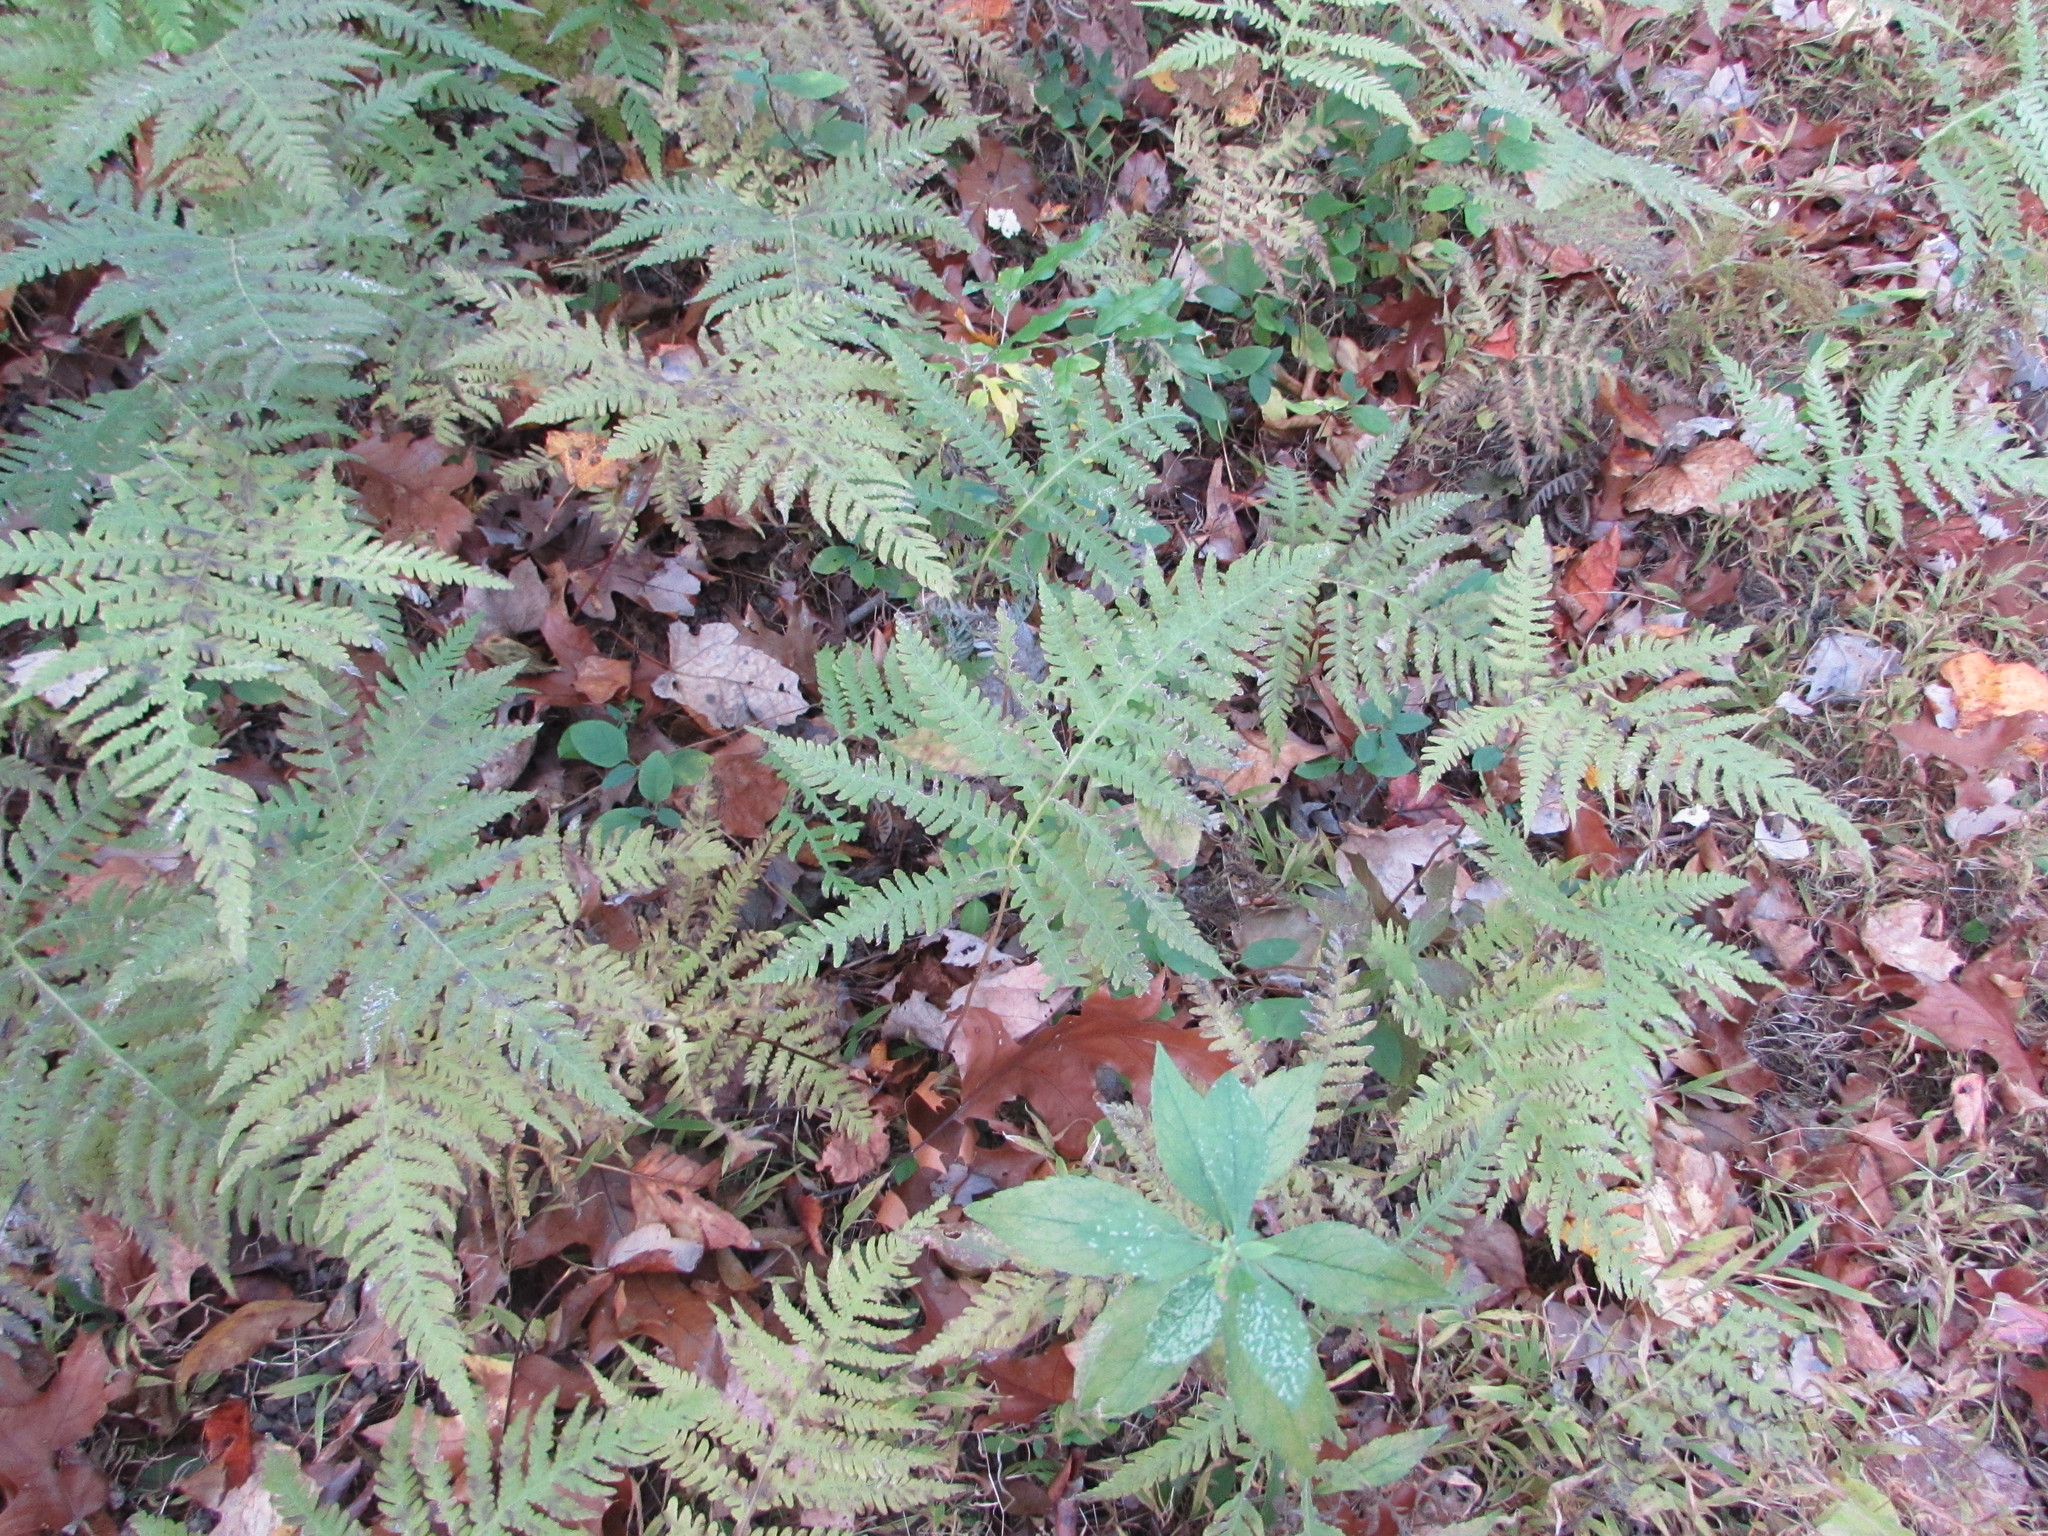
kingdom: Plantae
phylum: Tracheophyta
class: Polypodiopsida
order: Polypodiales
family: Thelypteridaceae
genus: Phegopteris
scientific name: Phegopteris hexagonoptera
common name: Broad beech fern
